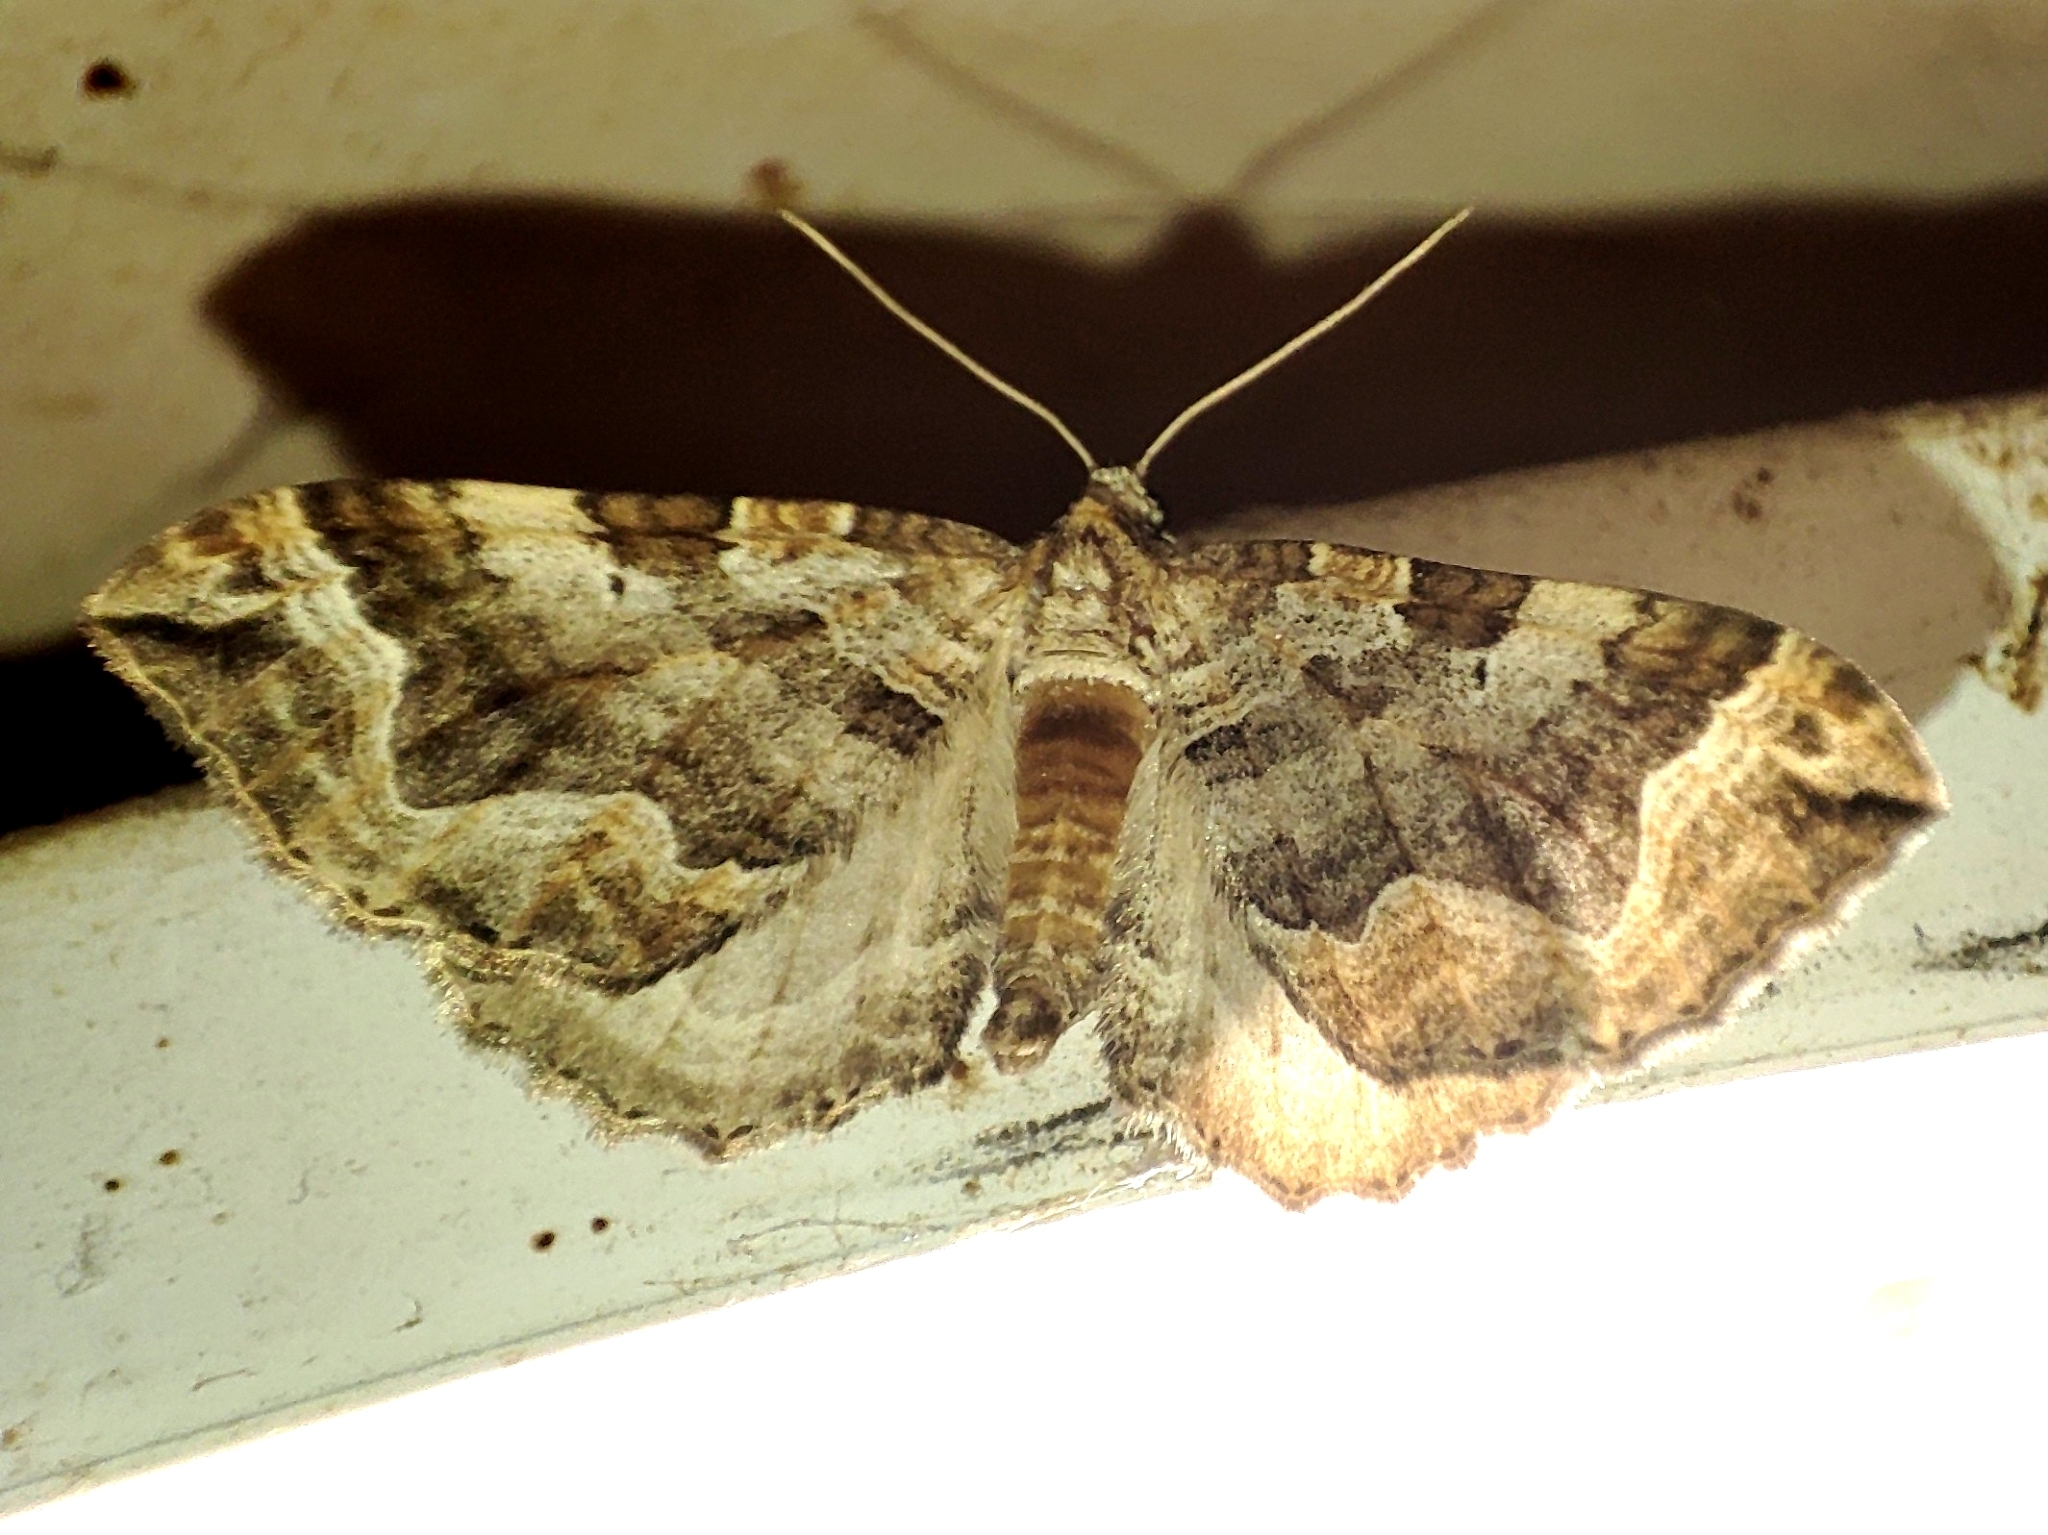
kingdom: Animalia
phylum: Arthropoda
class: Insecta
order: Lepidoptera
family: Geometridae
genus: Pelurga
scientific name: Pelurga comitata
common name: Dark spinach
